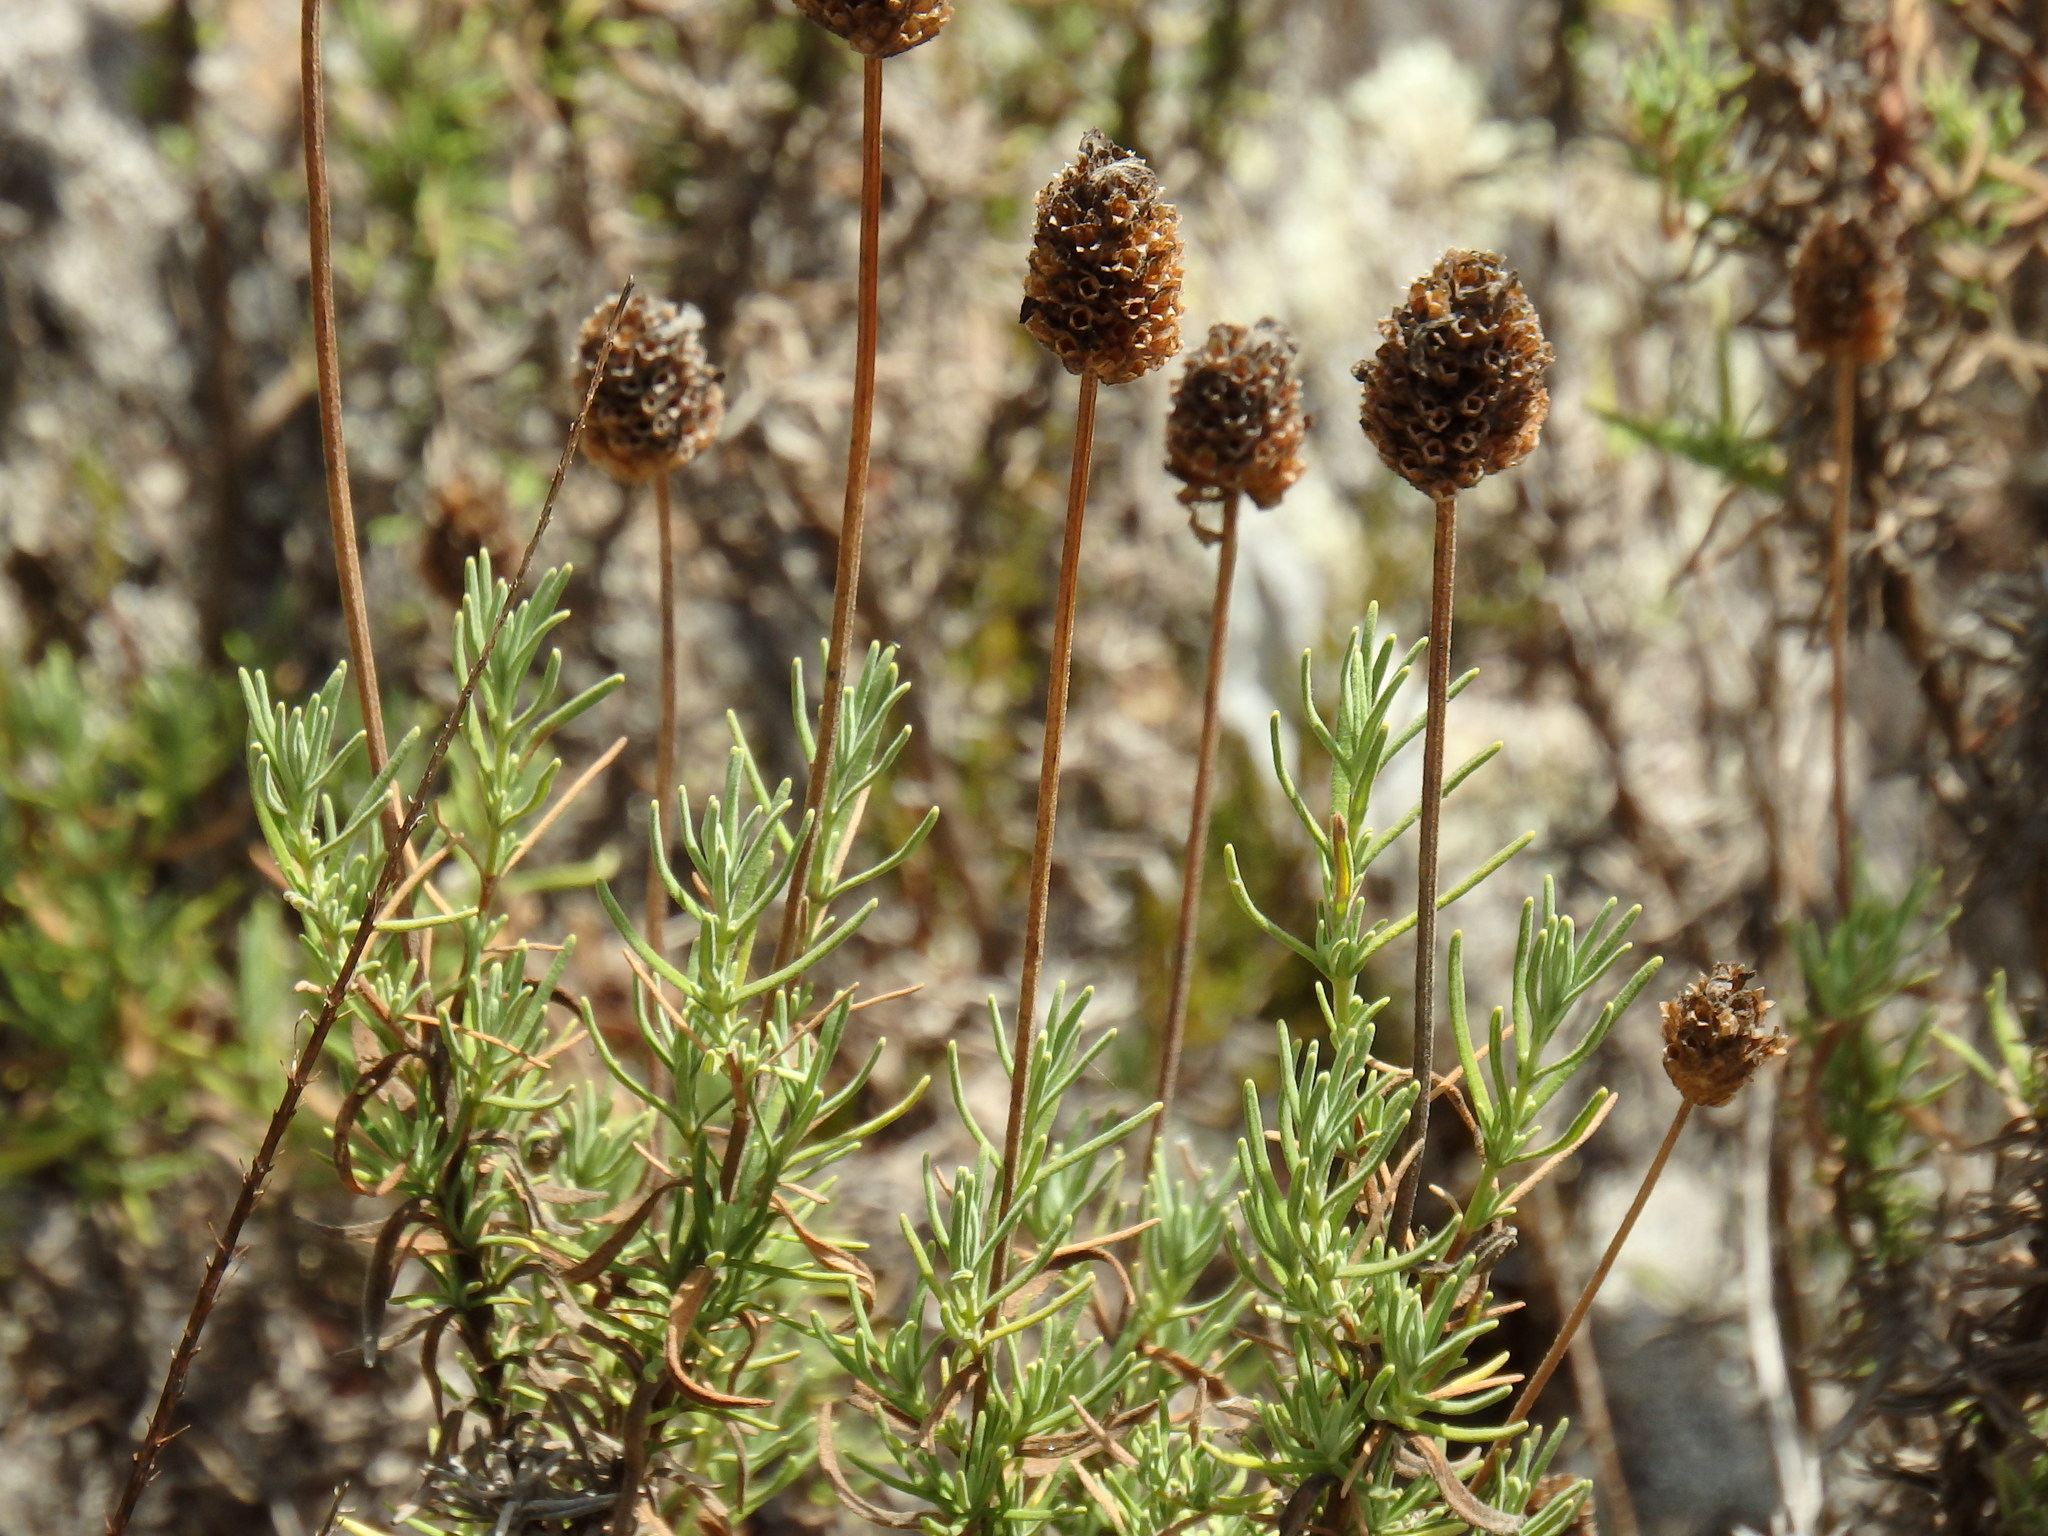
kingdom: Plantae
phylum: Tracheophyta
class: Magnoliopsida
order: Lamiales
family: Lamiaceae
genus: Lavandula
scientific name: Lavandula pedunculata
